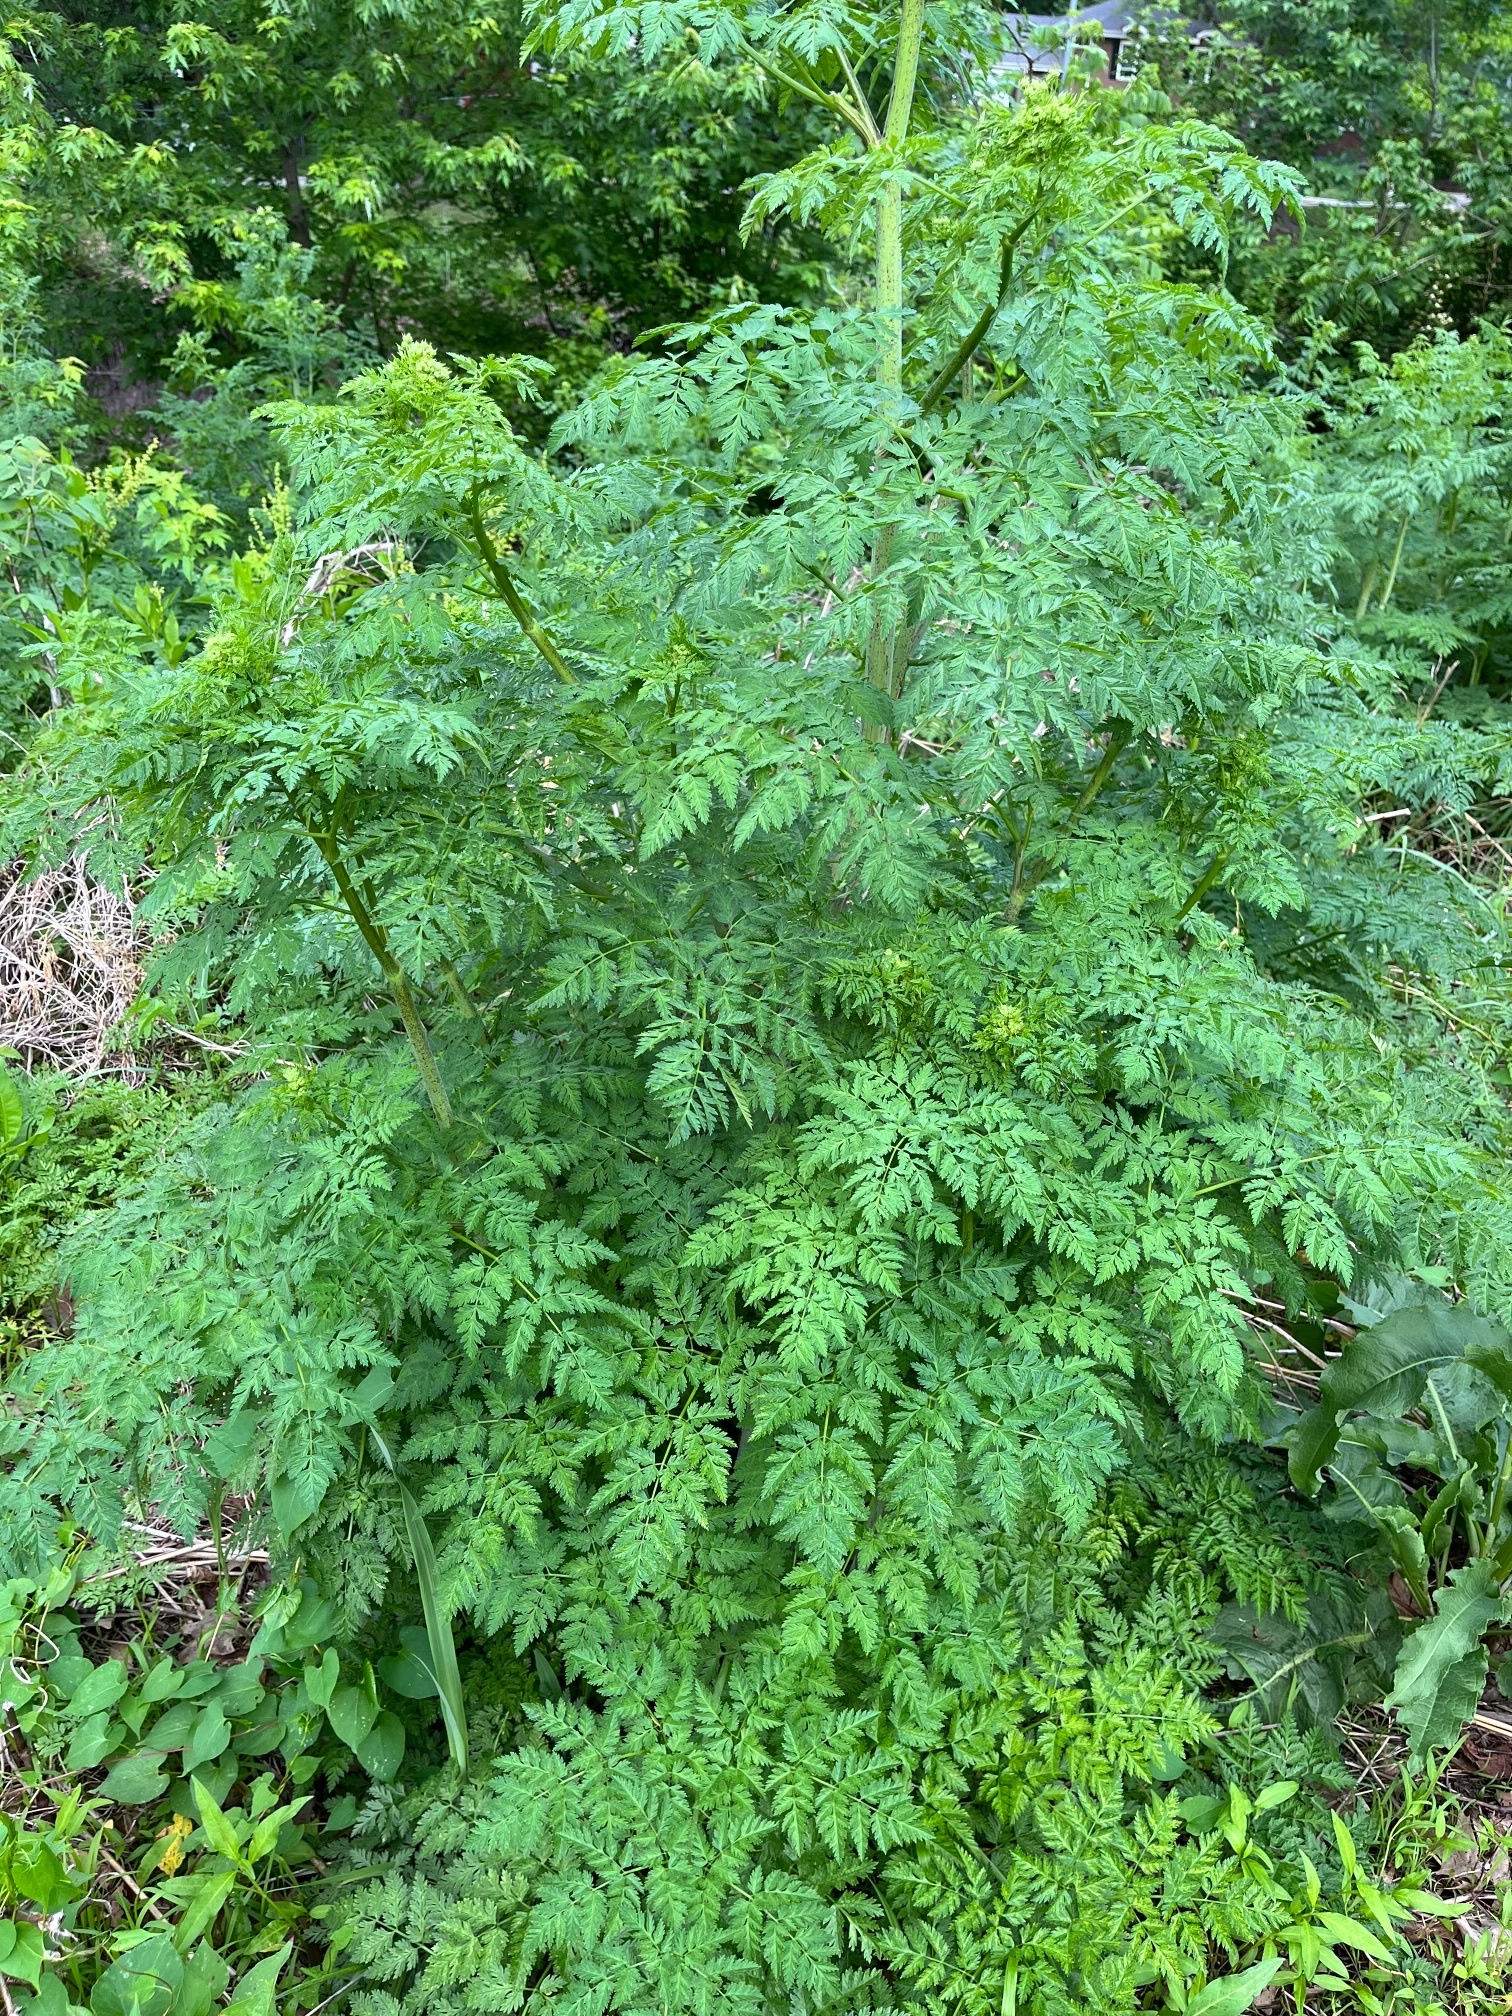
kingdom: Plantae
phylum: Tracheophyta
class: Magnoliopsida
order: Apiales
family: Apiaceae
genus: Conium
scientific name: Conium maculatum
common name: Hemlock
